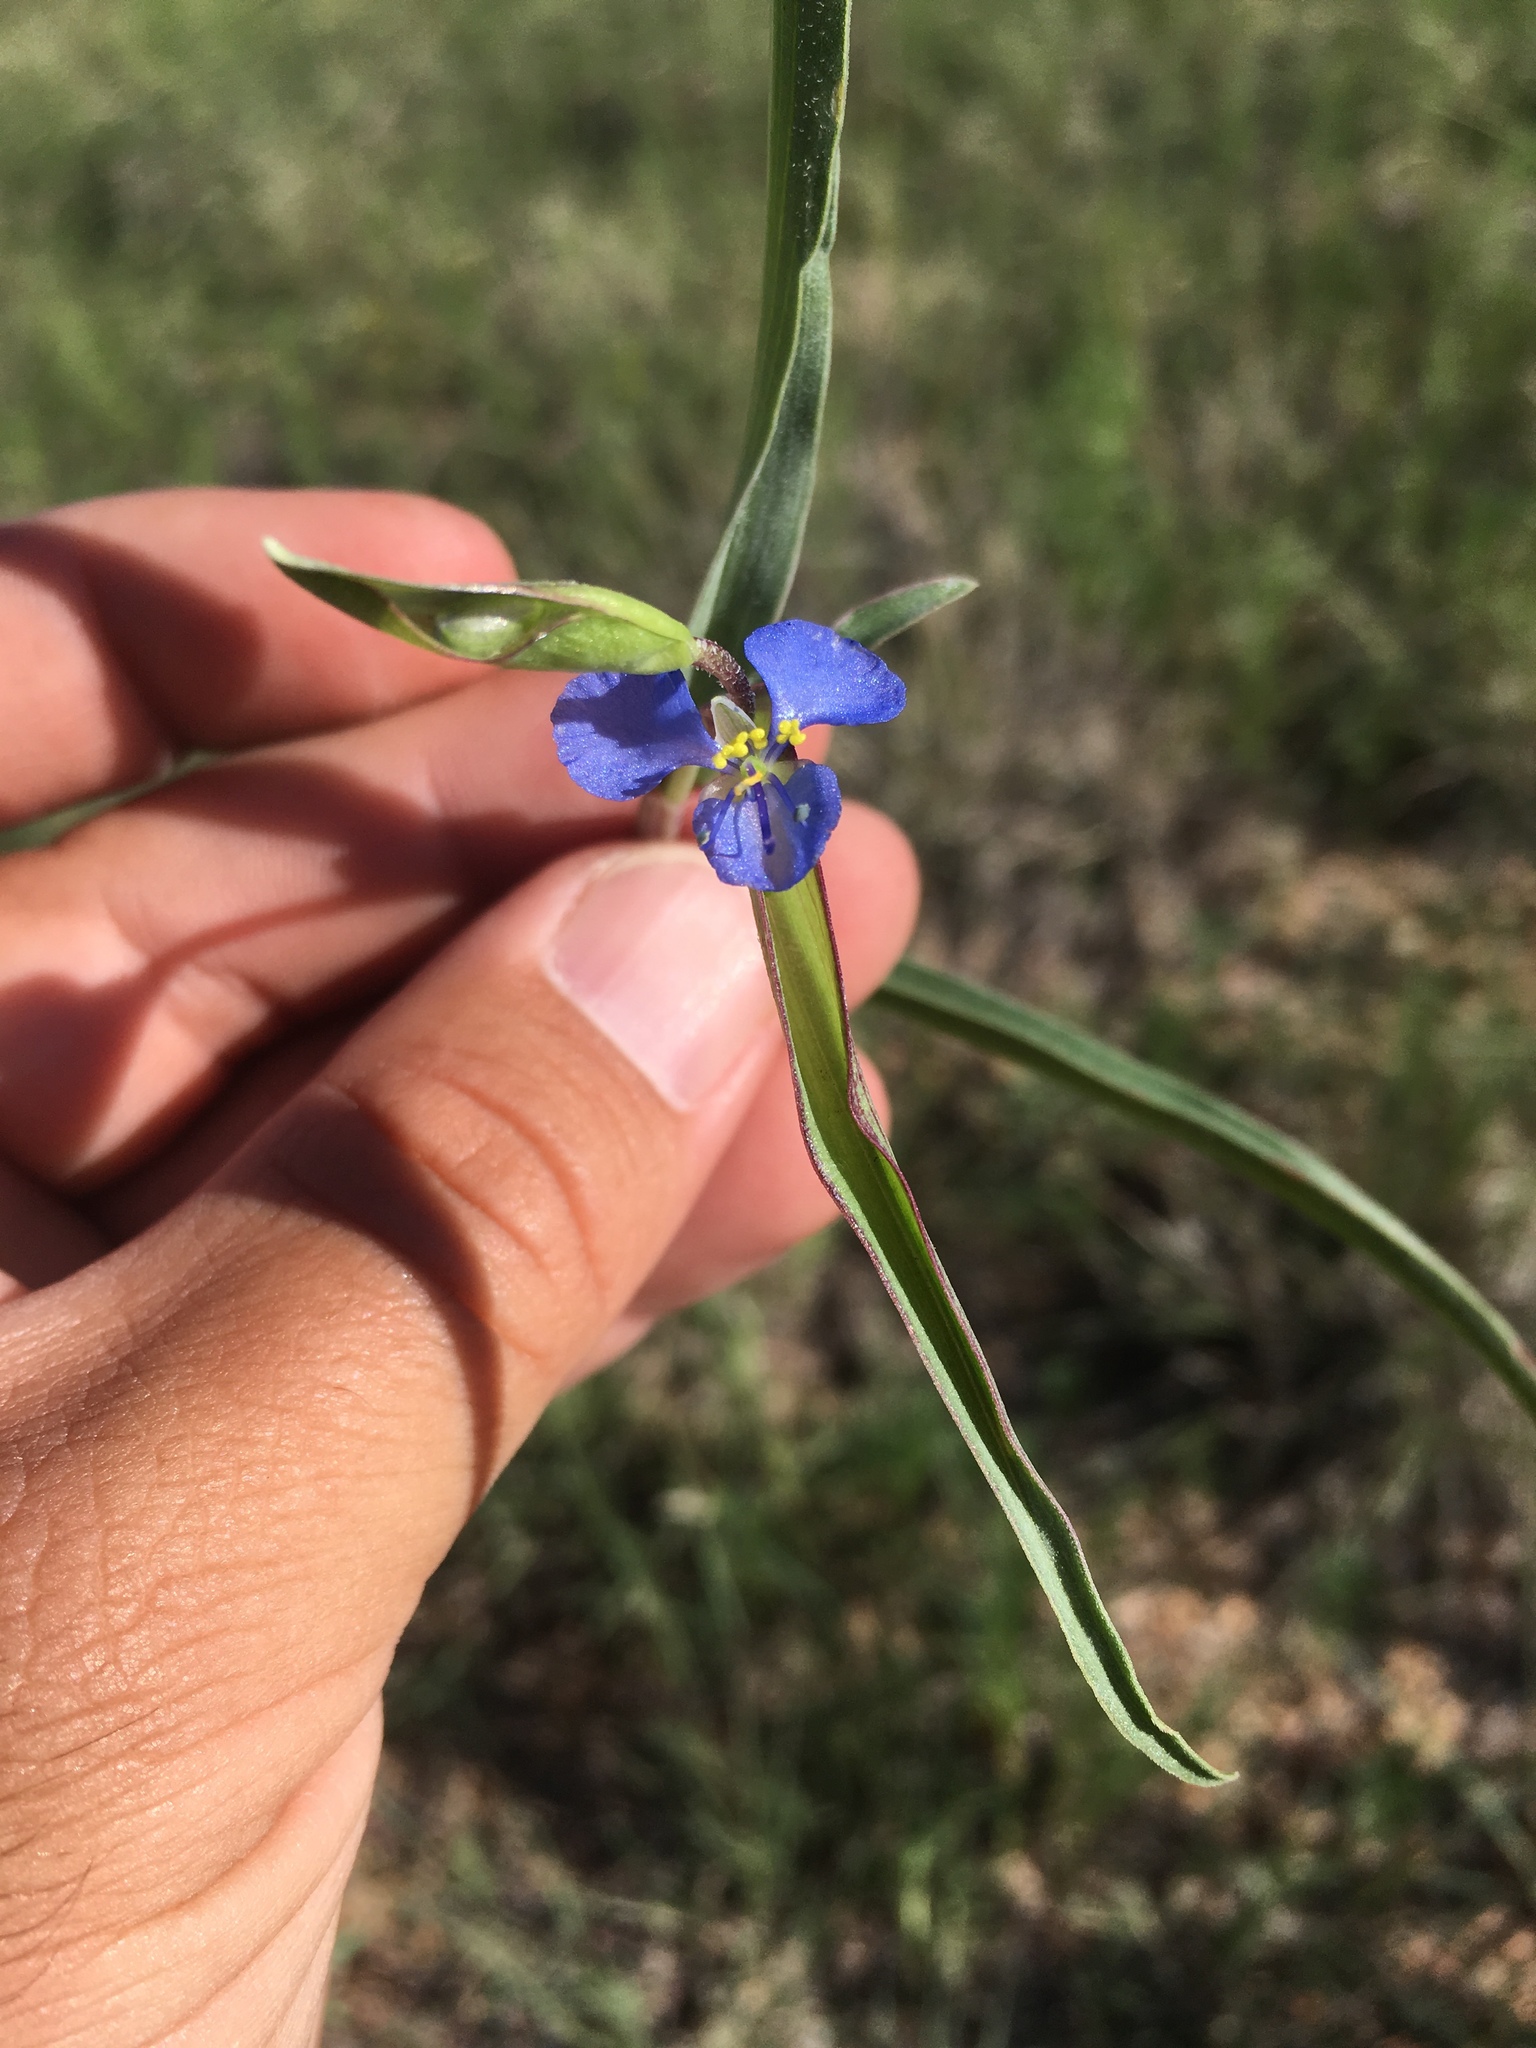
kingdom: Plantae
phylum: Tracheophyta
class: Liliopsida
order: Commelinales
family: Commelinaceae
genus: Commelina
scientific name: Commelina dianthifolia
